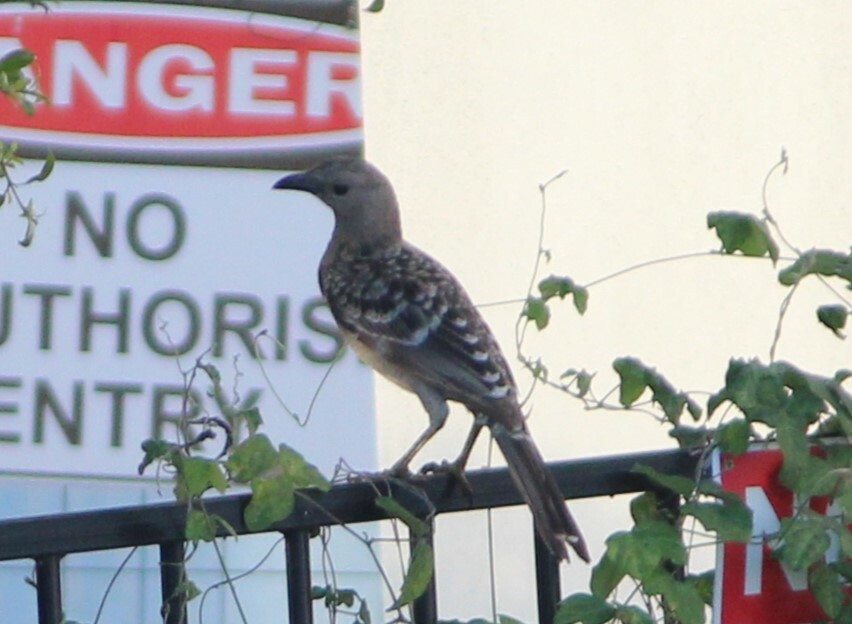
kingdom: Animalia
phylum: Chordata
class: Aves
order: Passeriformes
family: Ptilonorhynchidae
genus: Chlamydera
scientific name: Chlamydera nuchalis
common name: Great bowerbird
